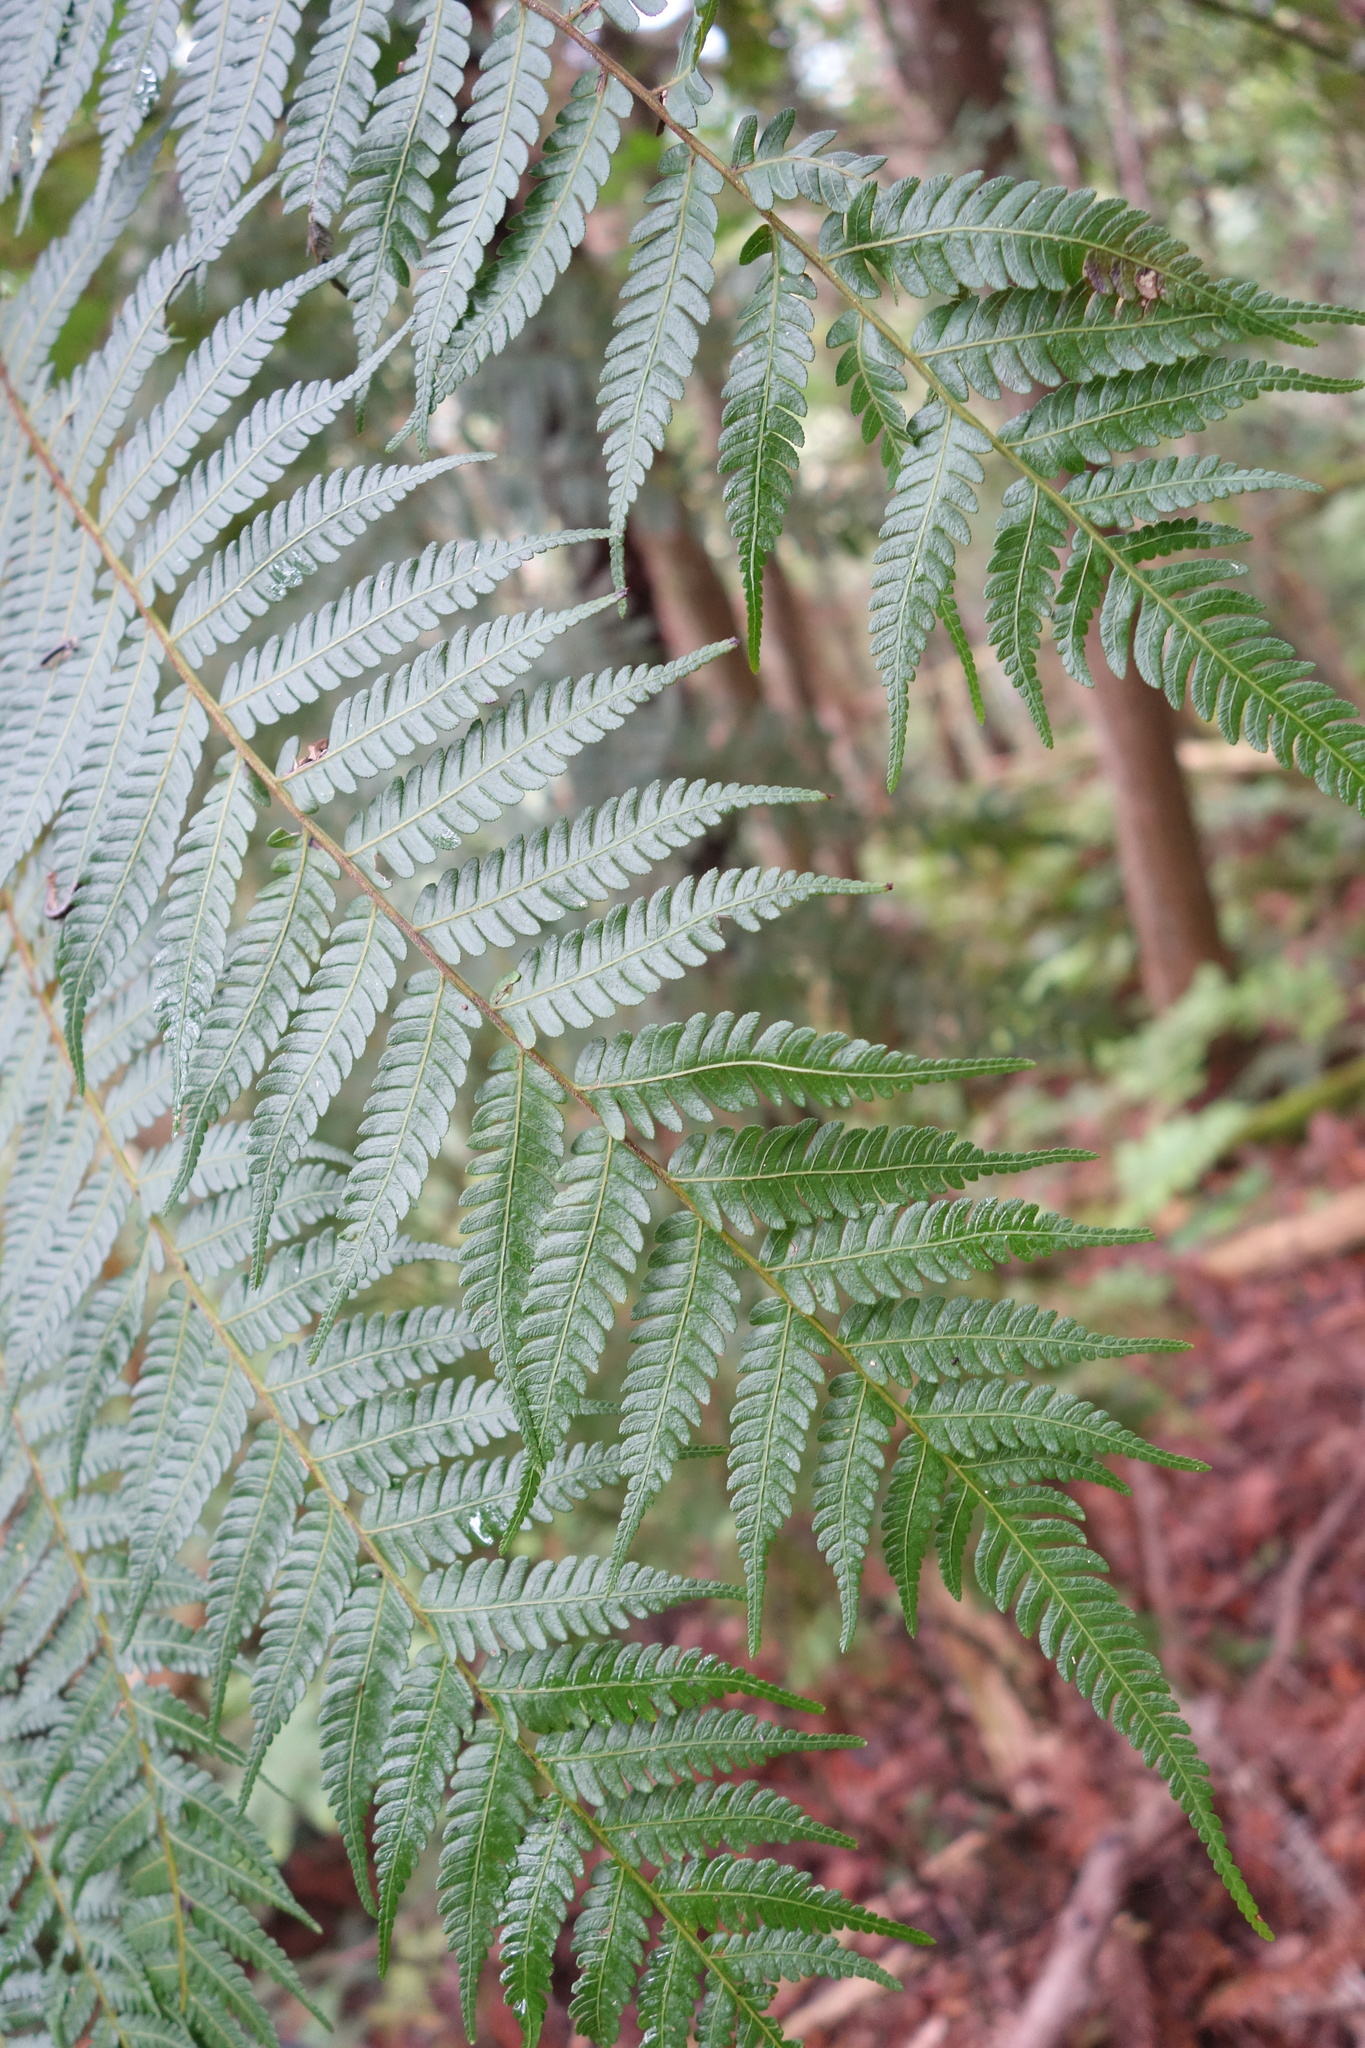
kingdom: Plantae
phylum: Tracheophyta
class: Polypodiopsida
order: Cyatheales
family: Cyatheaceae
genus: Alsophila
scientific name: Alsophila spinulosa
